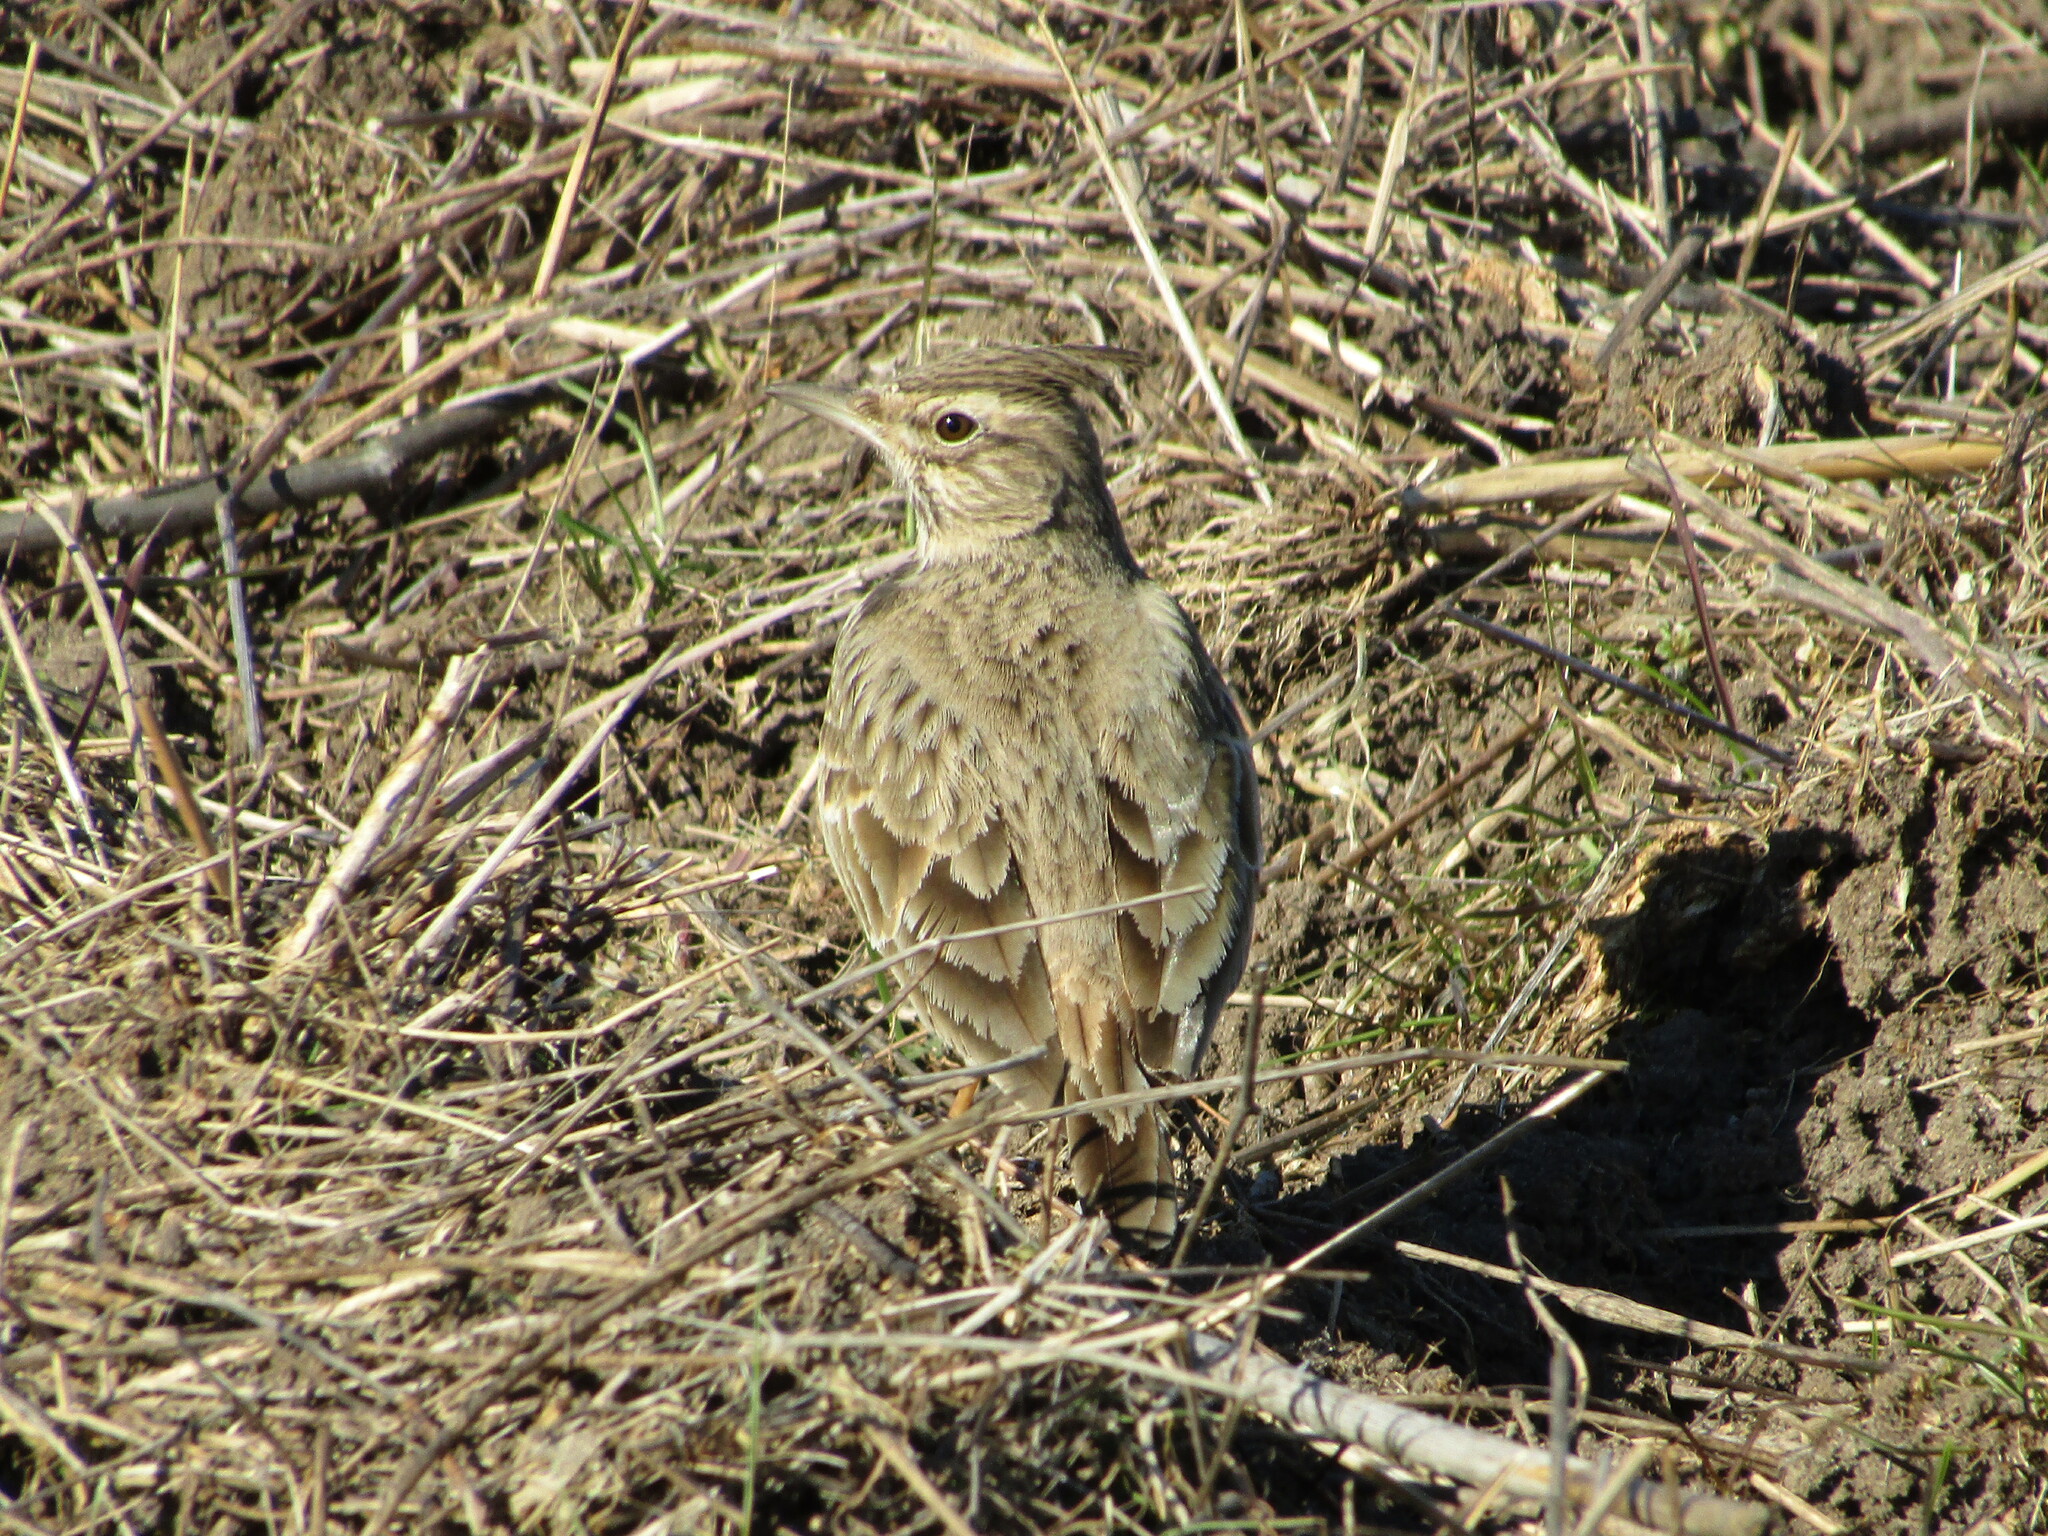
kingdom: Animalia
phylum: Chordata
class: Aves
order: Passeriformes
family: Alaudidae
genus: Galerida
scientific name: Galerida cristata
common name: Crested lark
